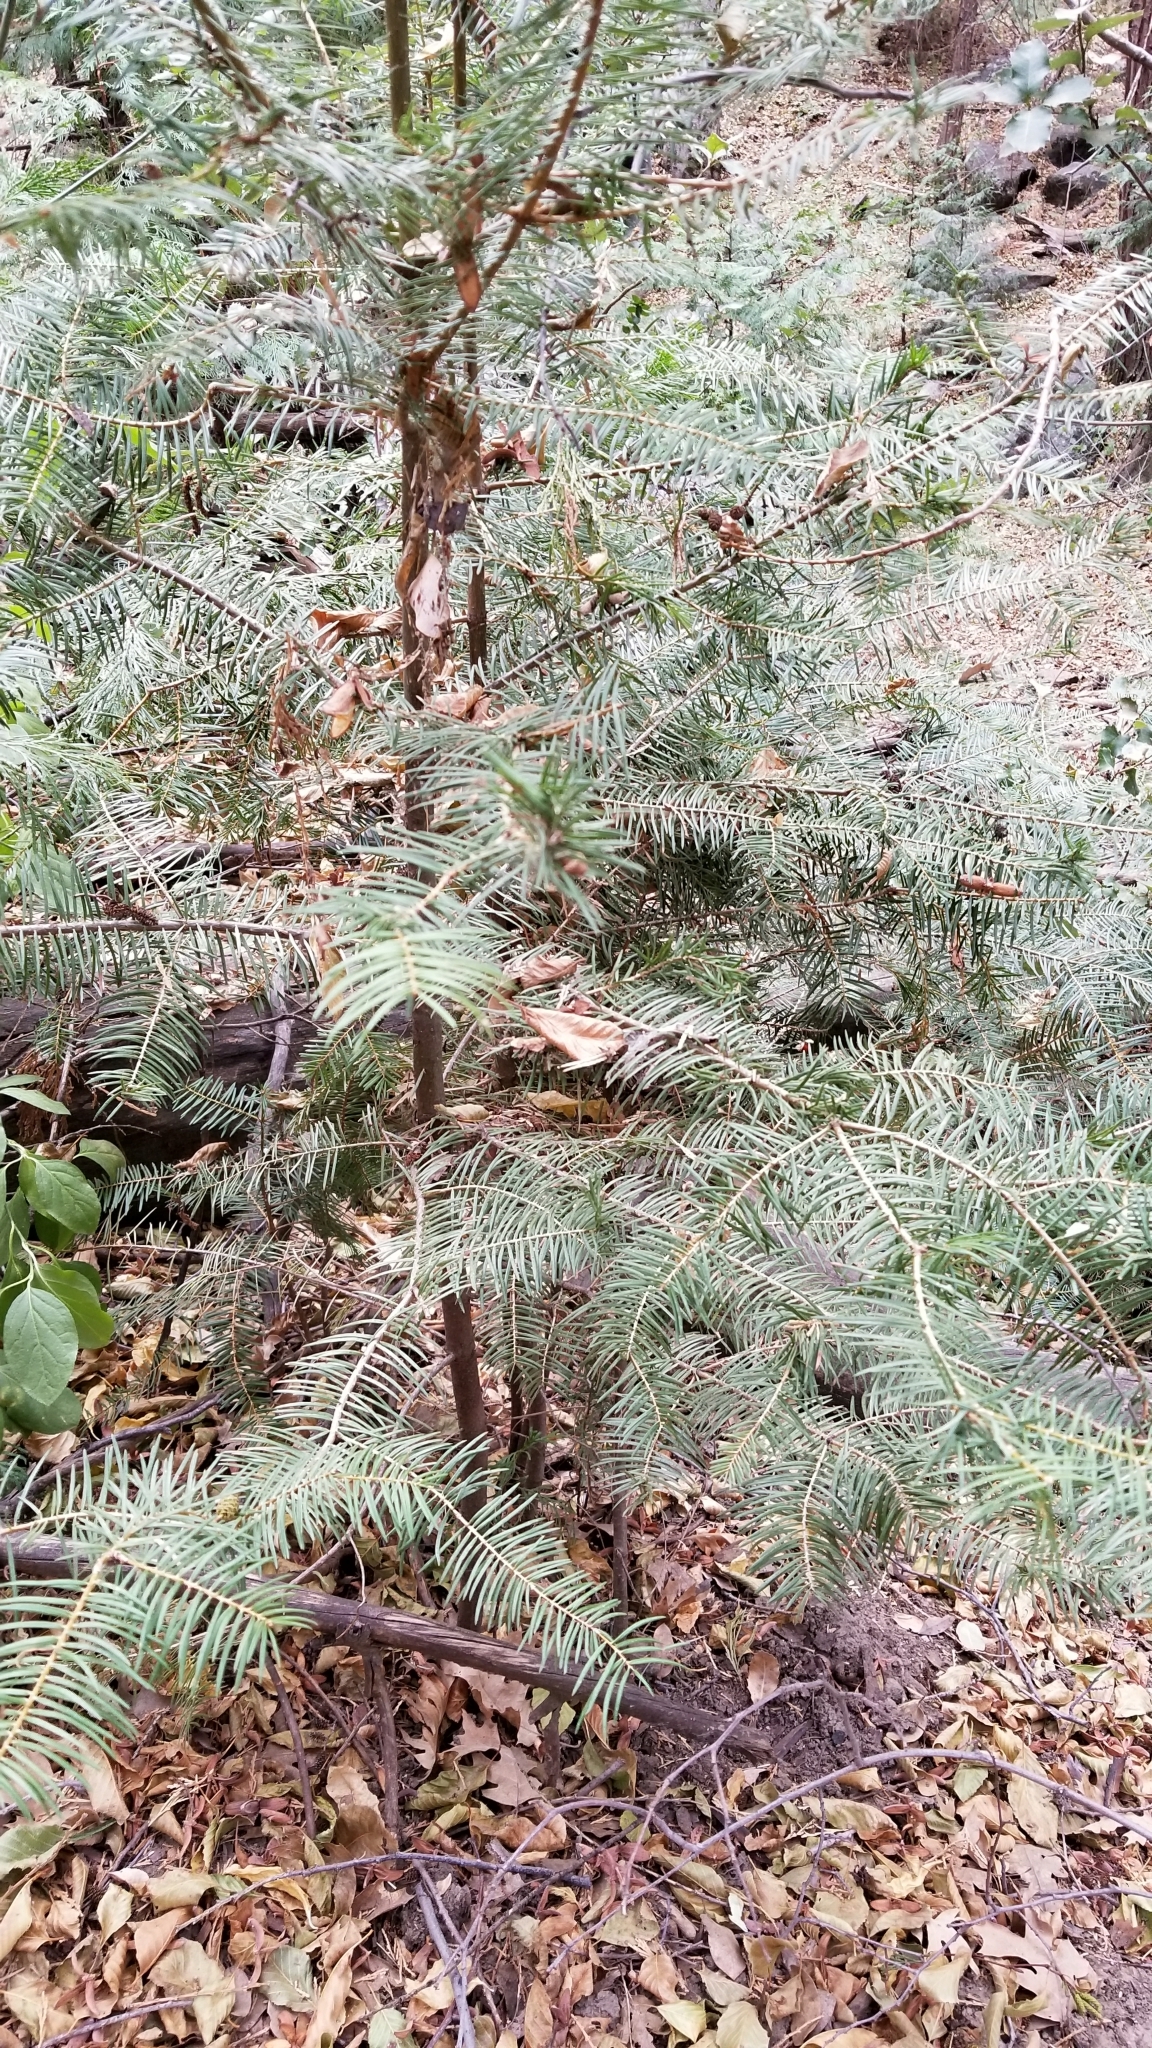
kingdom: Plantae
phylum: Tracheophyta
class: Pinopsida
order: Pinales
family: Pinaceae
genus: Abies
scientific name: Abies concolor
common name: Colorado fir
